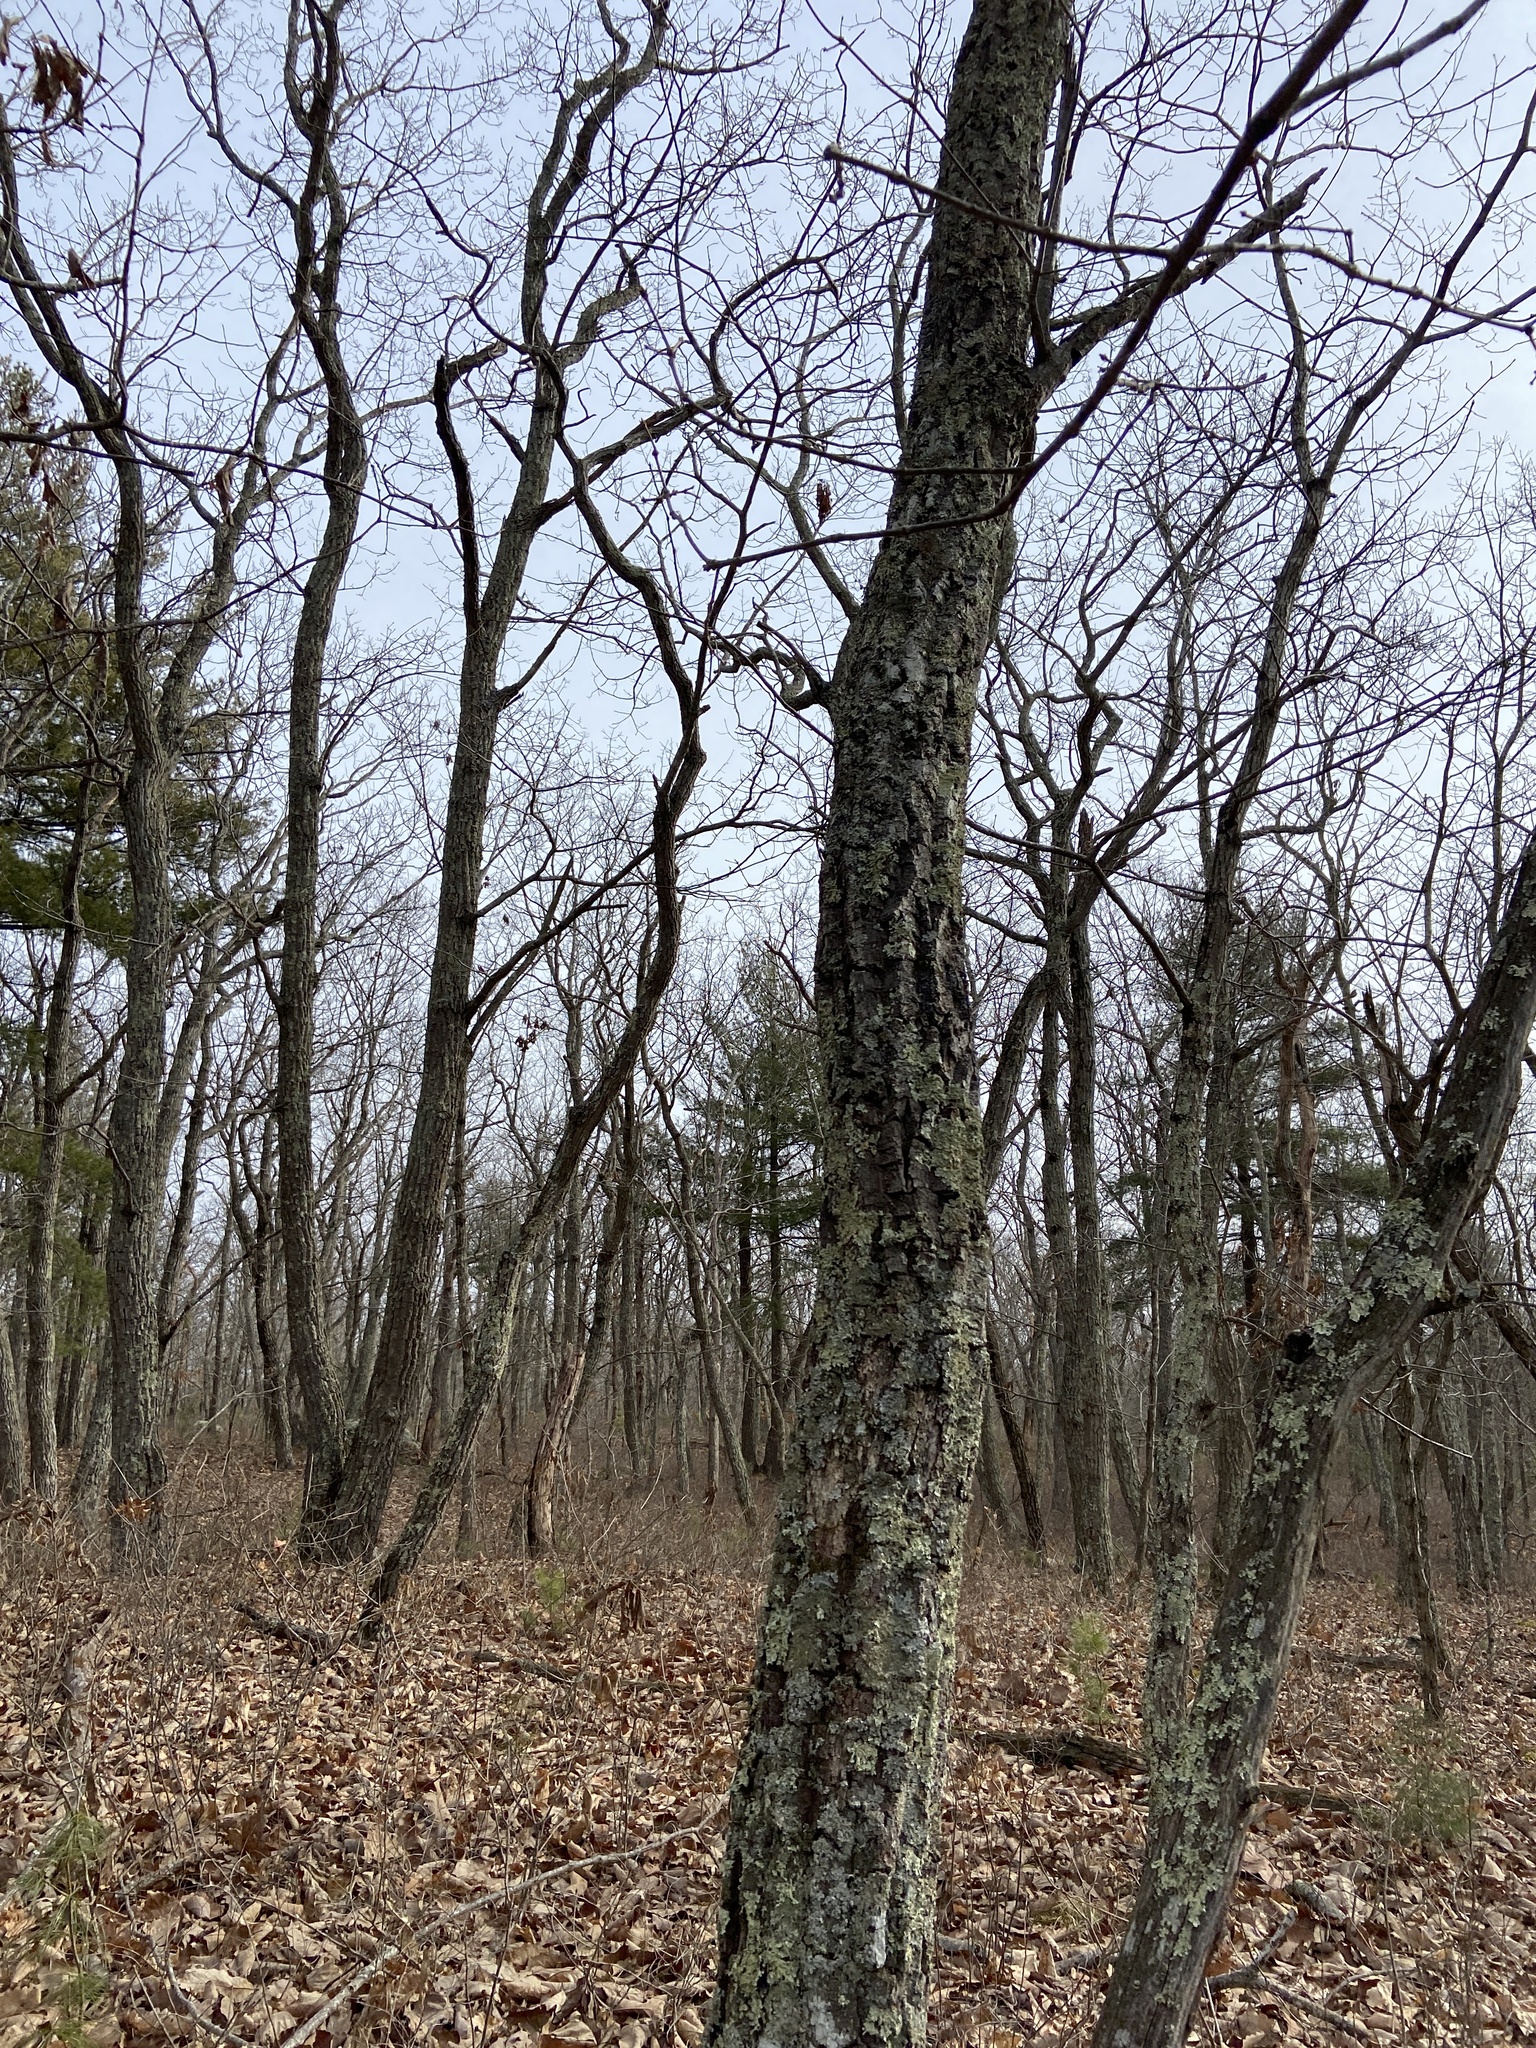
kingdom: Plantae
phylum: Tracheophyta
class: Magnoliopsida
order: Fagales
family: Fagaceae
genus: Quercus
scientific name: Quercus montana
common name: Chestnut oak
